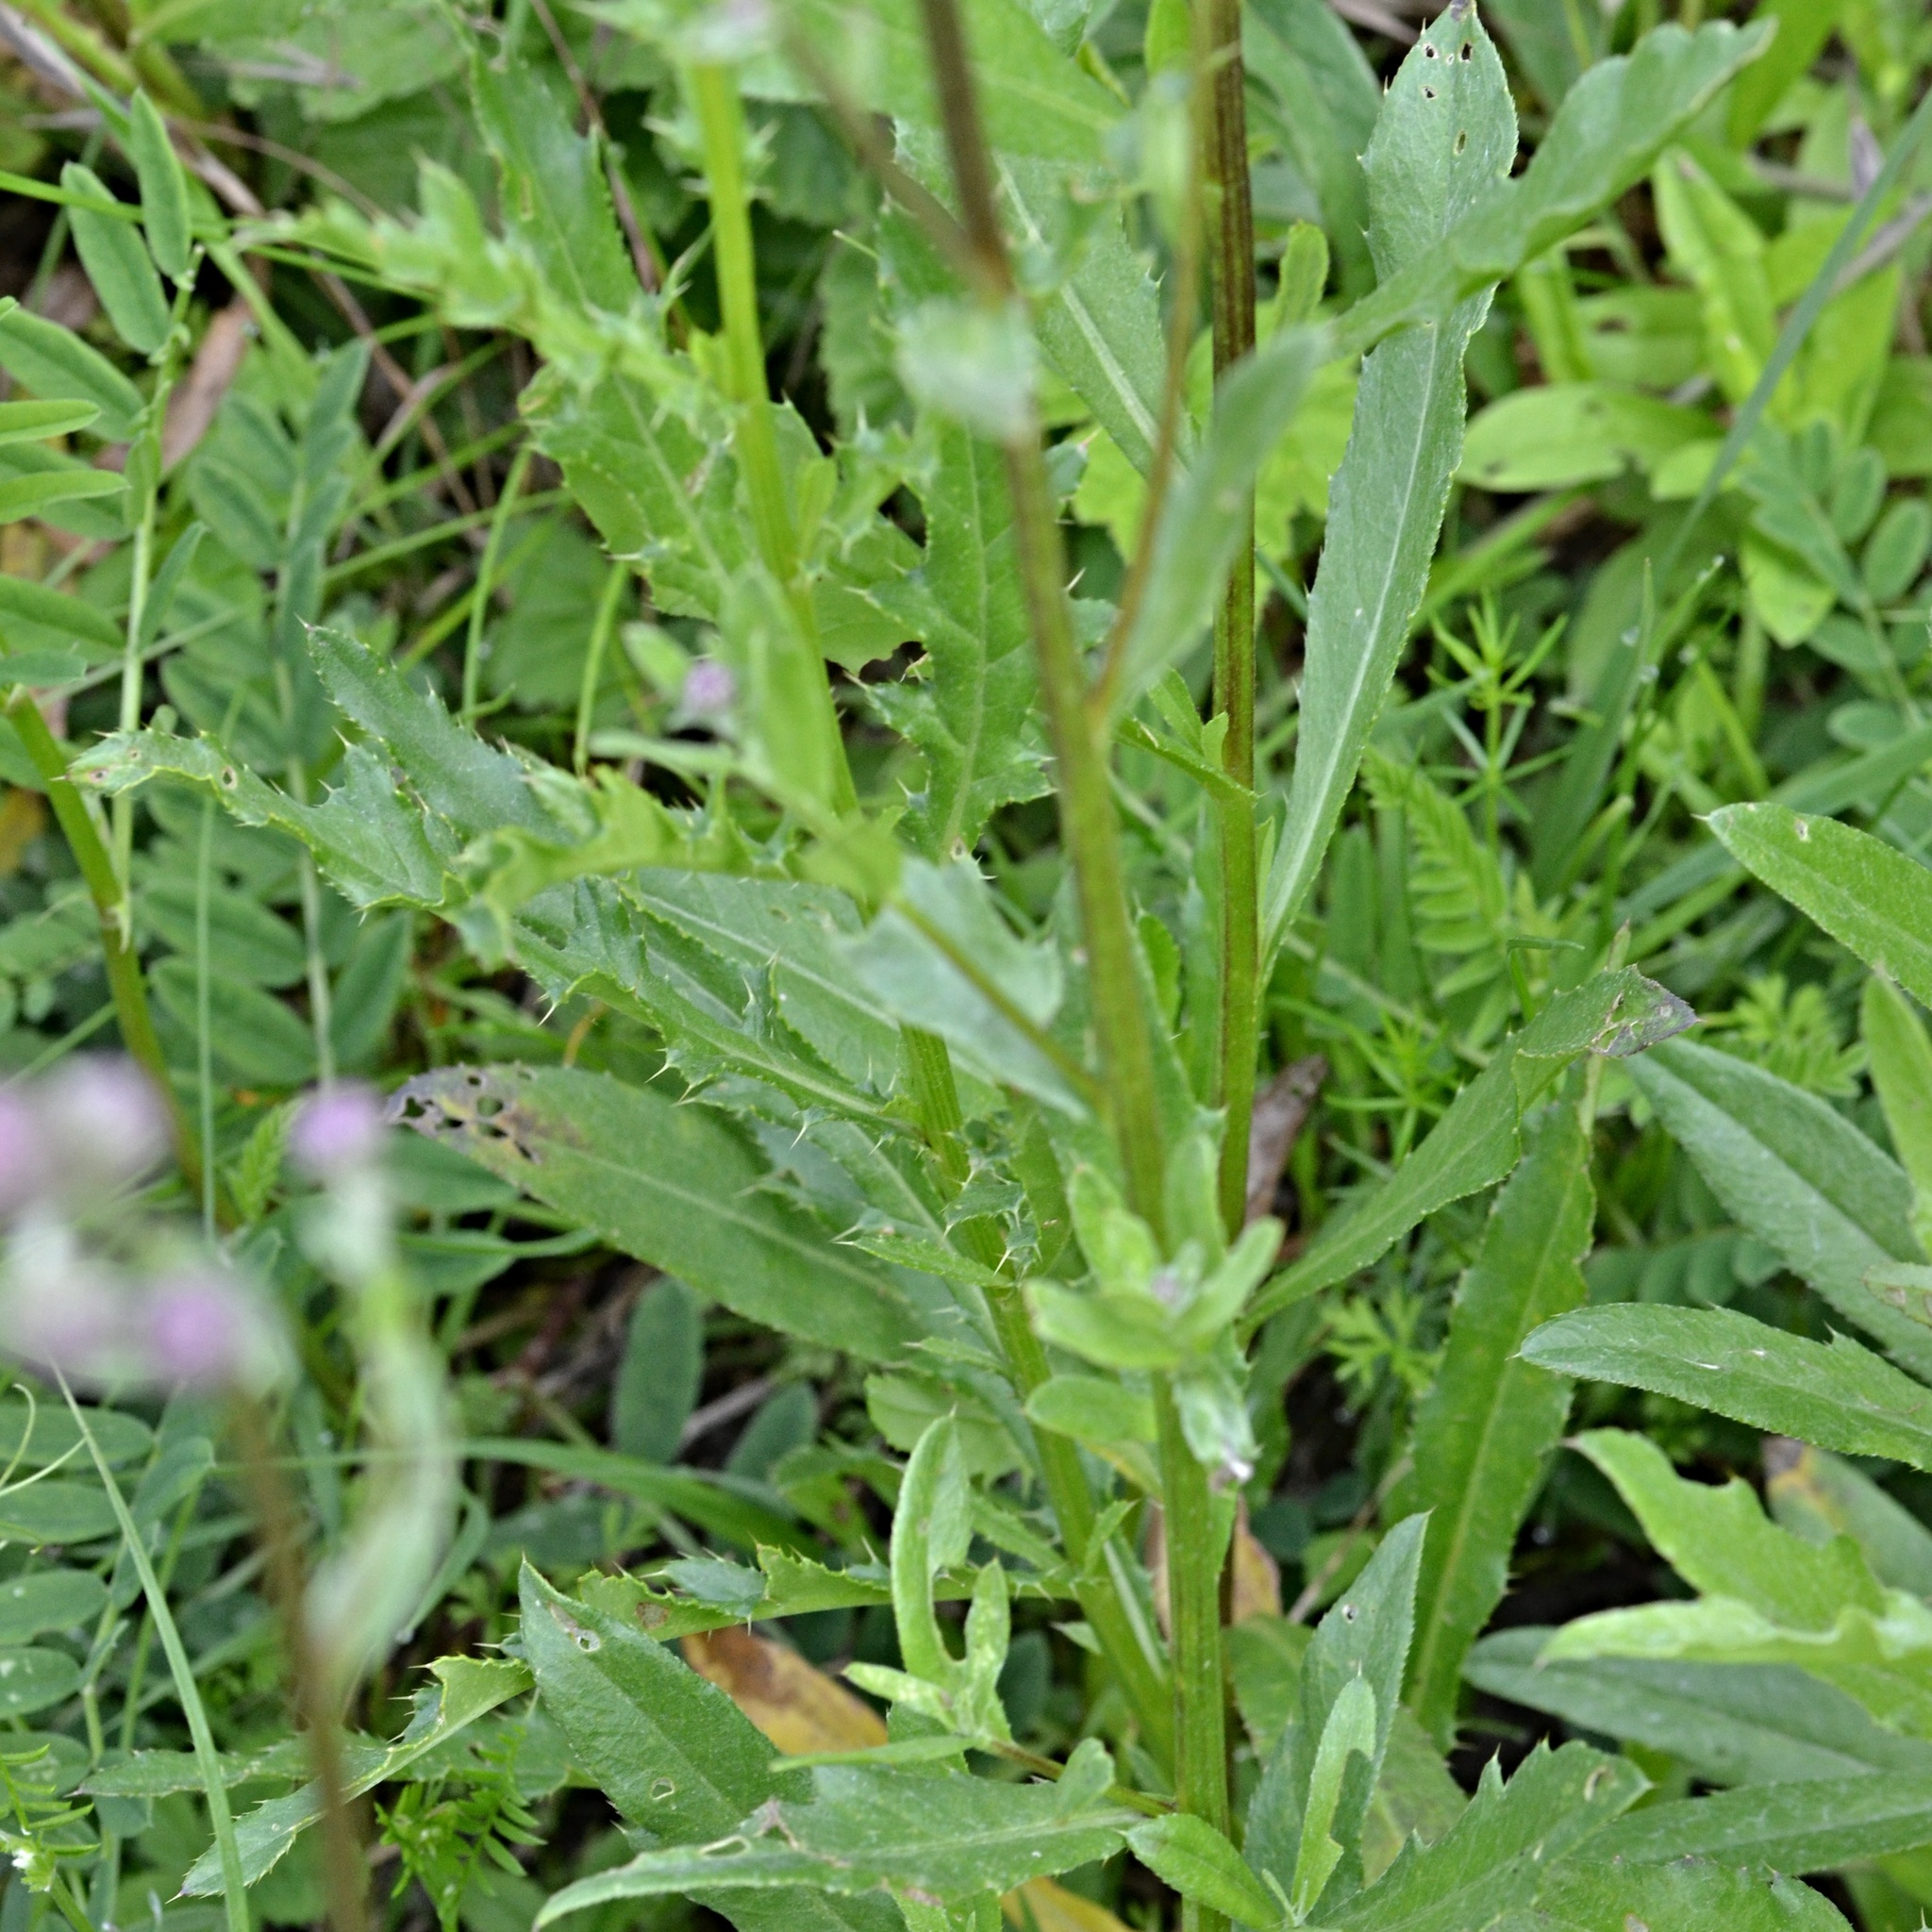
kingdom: Plantae
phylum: Tracheophyta
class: Magnoliopsida
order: Asterales
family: Asteraceae
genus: Cirsium
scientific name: Cirsium arvense
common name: Creeping thistle
